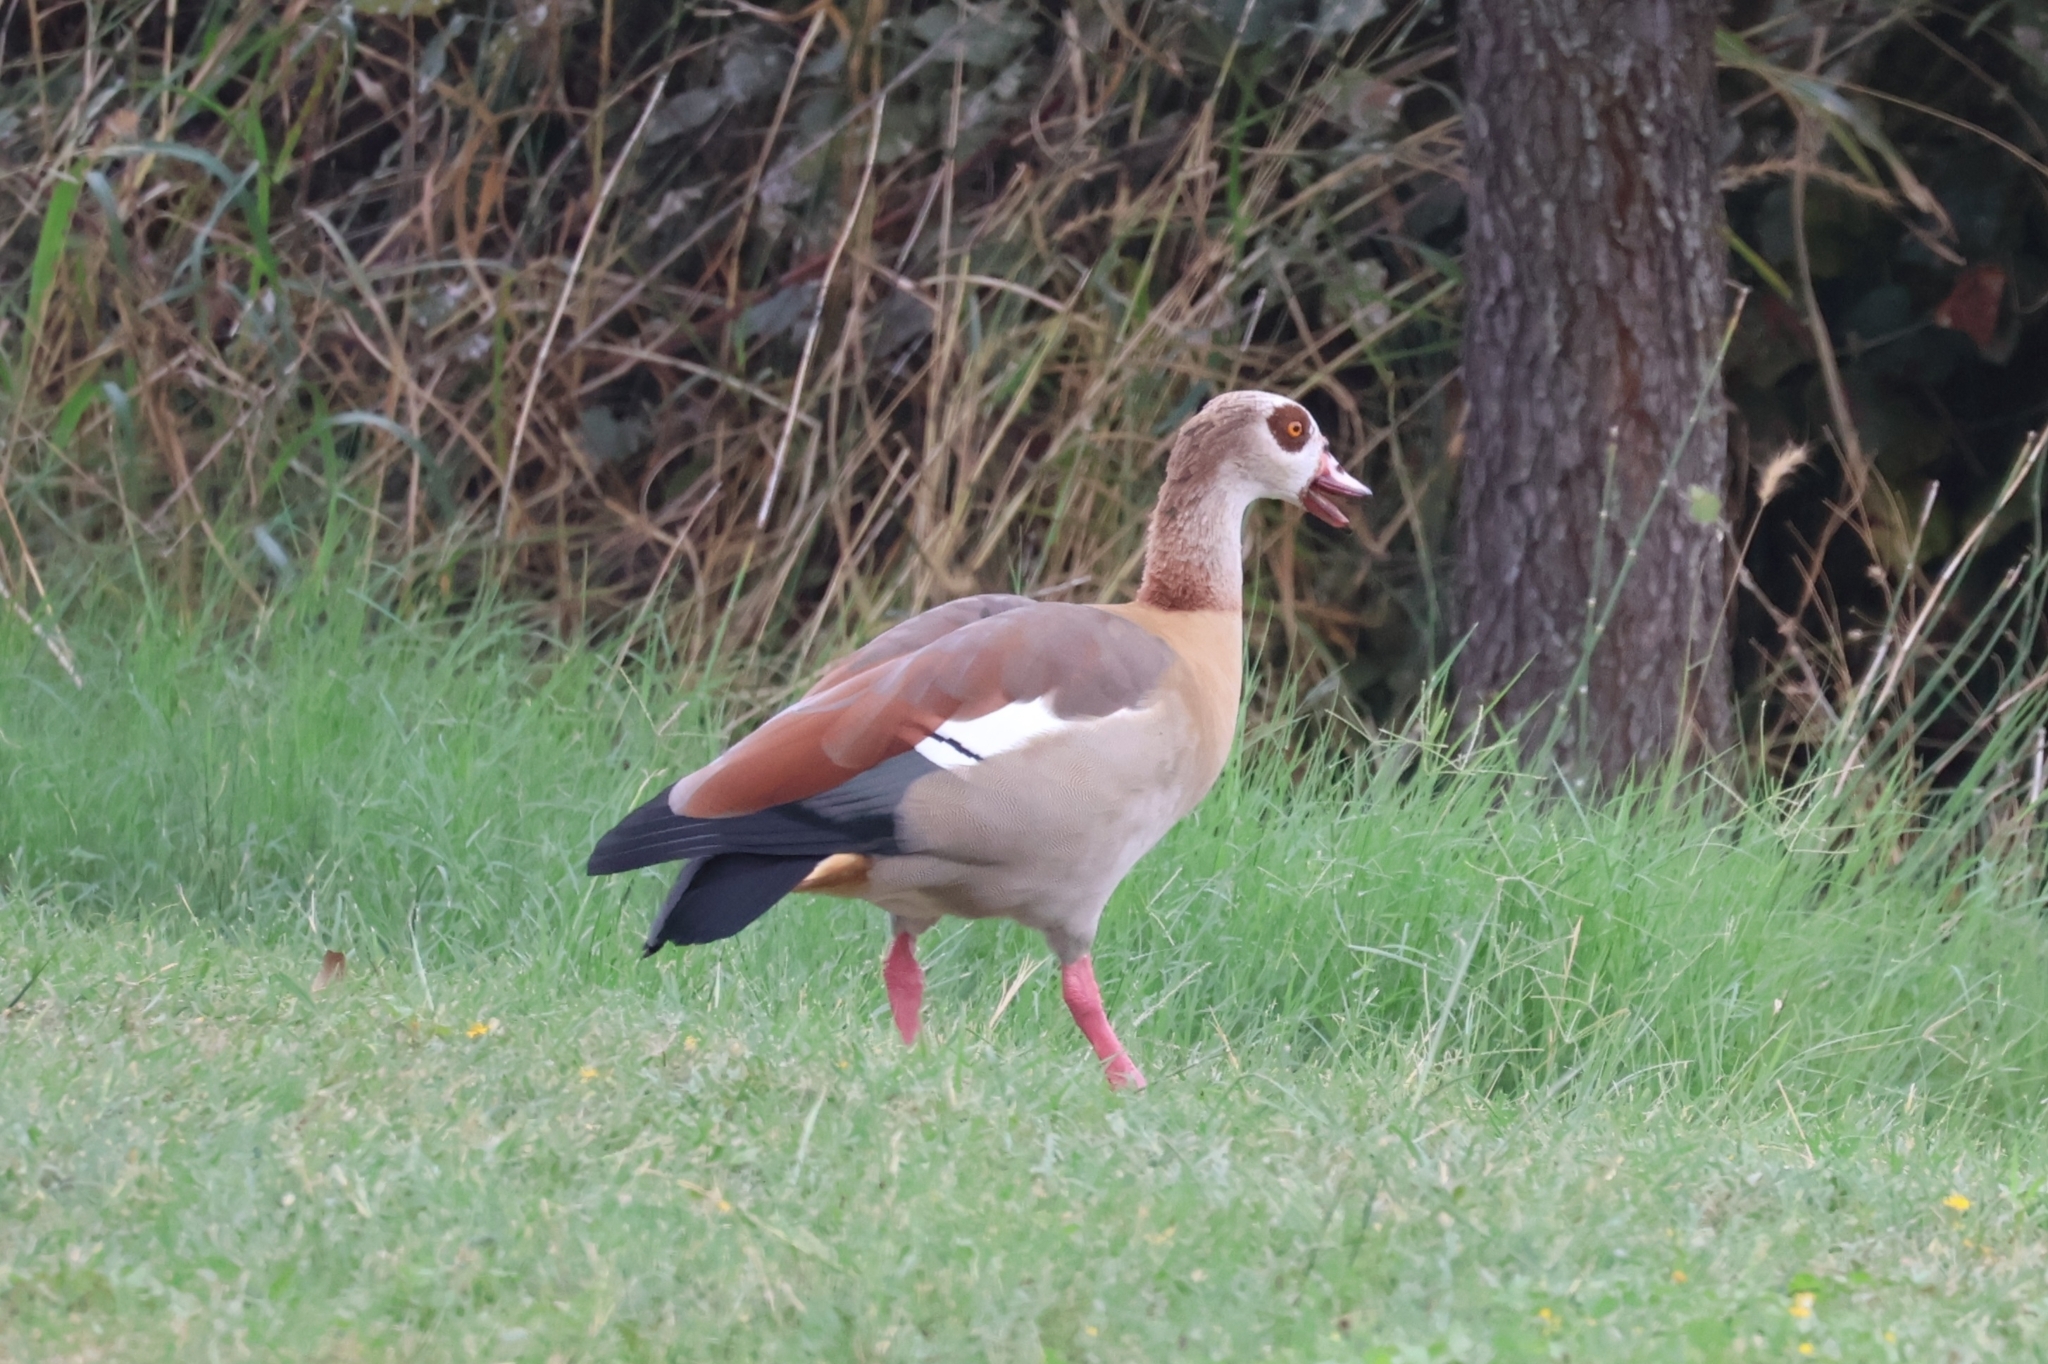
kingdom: Animalia
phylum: Chordata
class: Aves
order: Anseriformes
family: Anatidae
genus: Alopochen
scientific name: Alopochen aegyptiaca
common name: Egyptian goose
